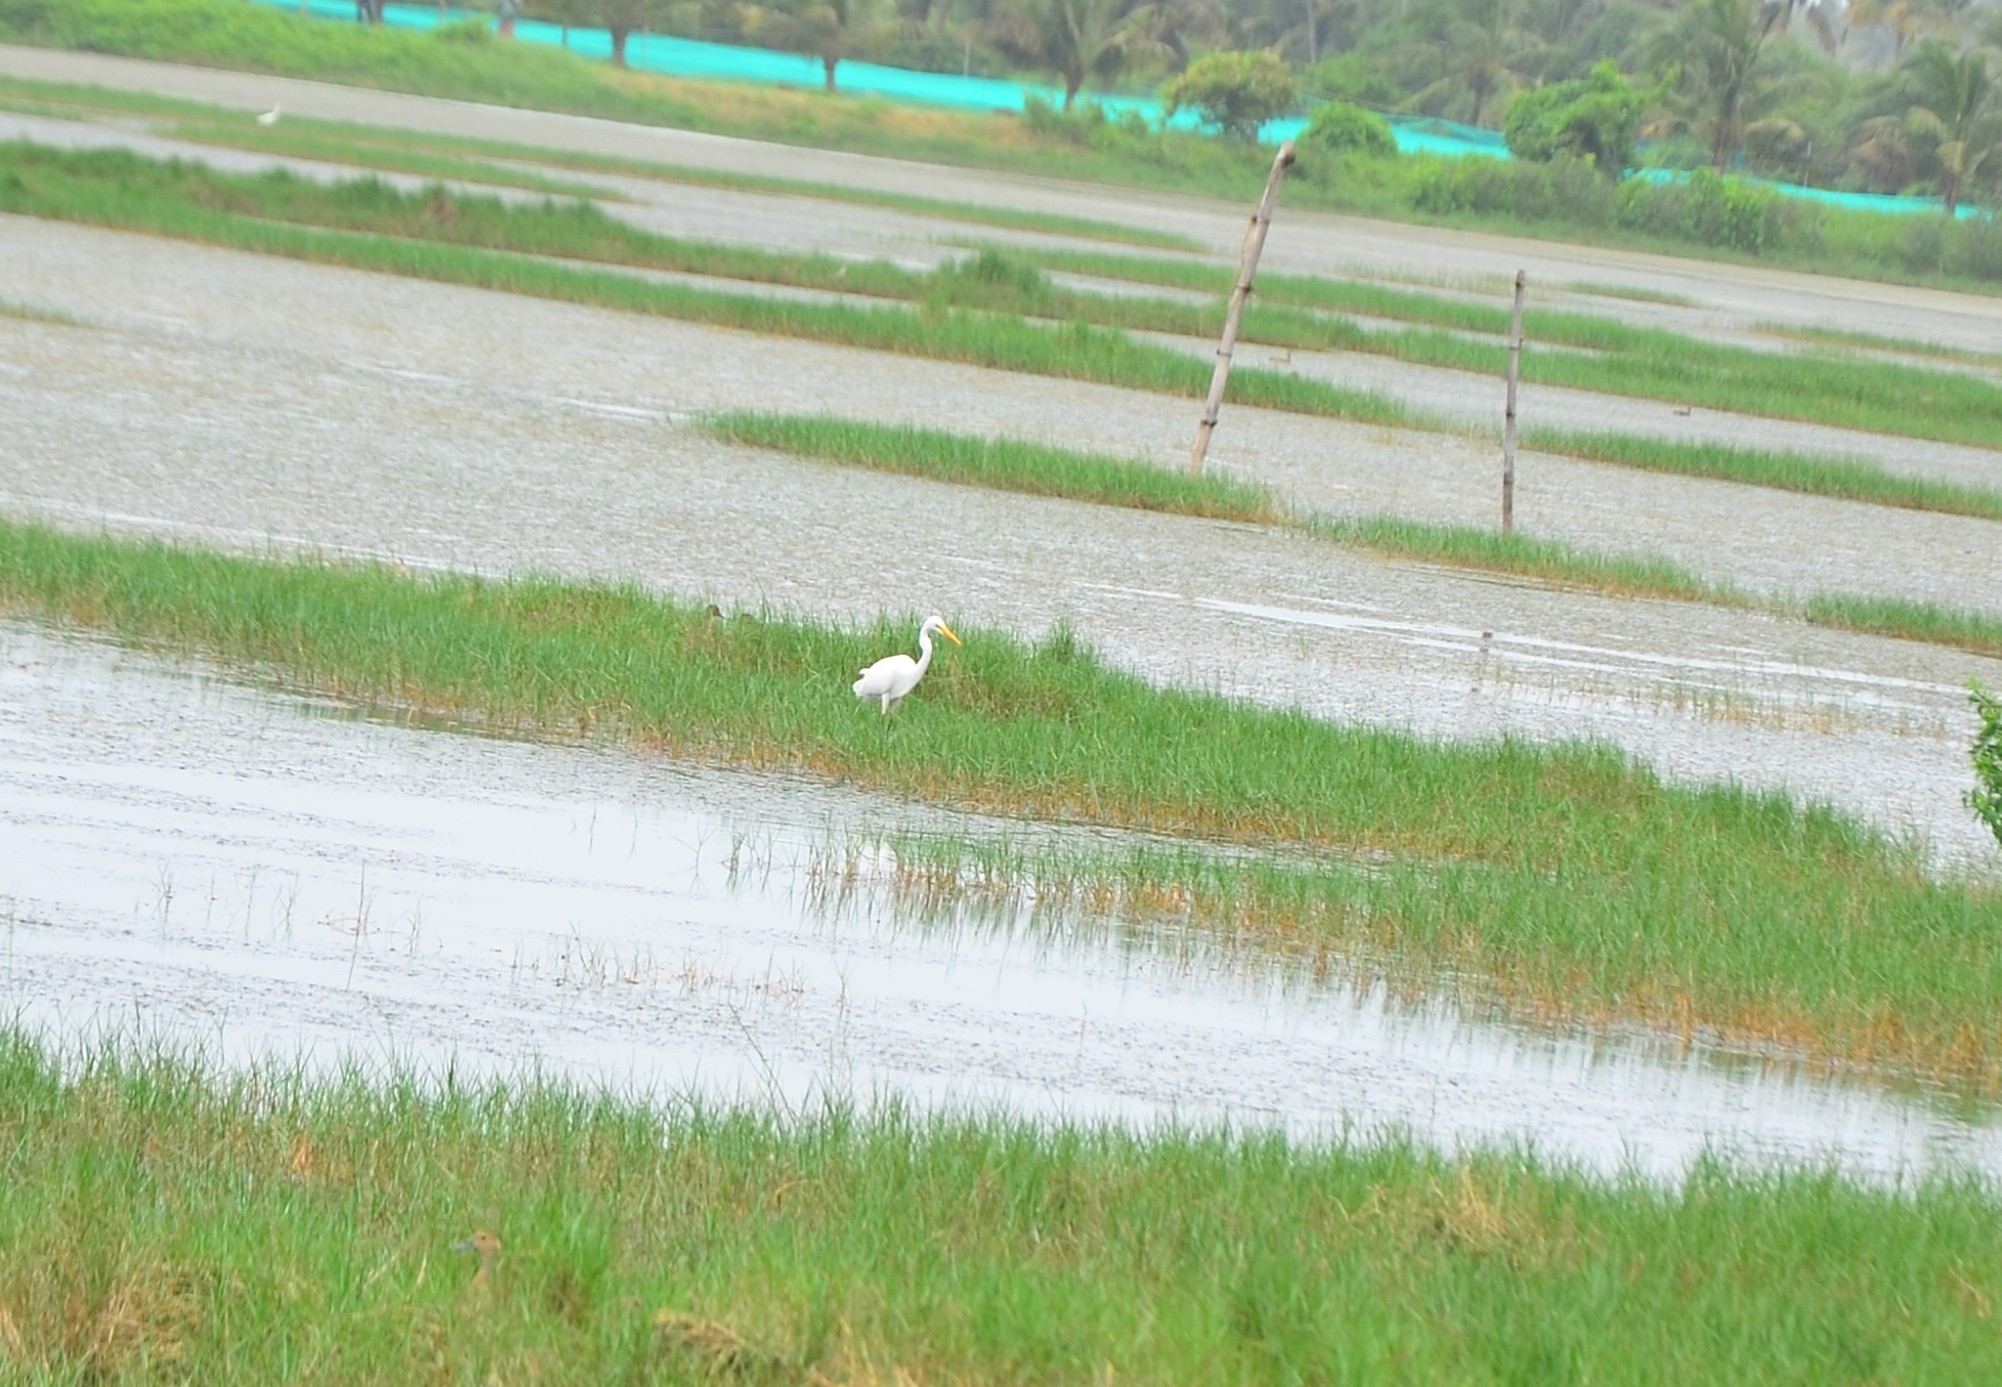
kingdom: Animalia
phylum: Chordata
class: Aves
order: Pelecaniformes
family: Ardeidae
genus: Ardea
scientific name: Ardea alba
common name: Great egret
